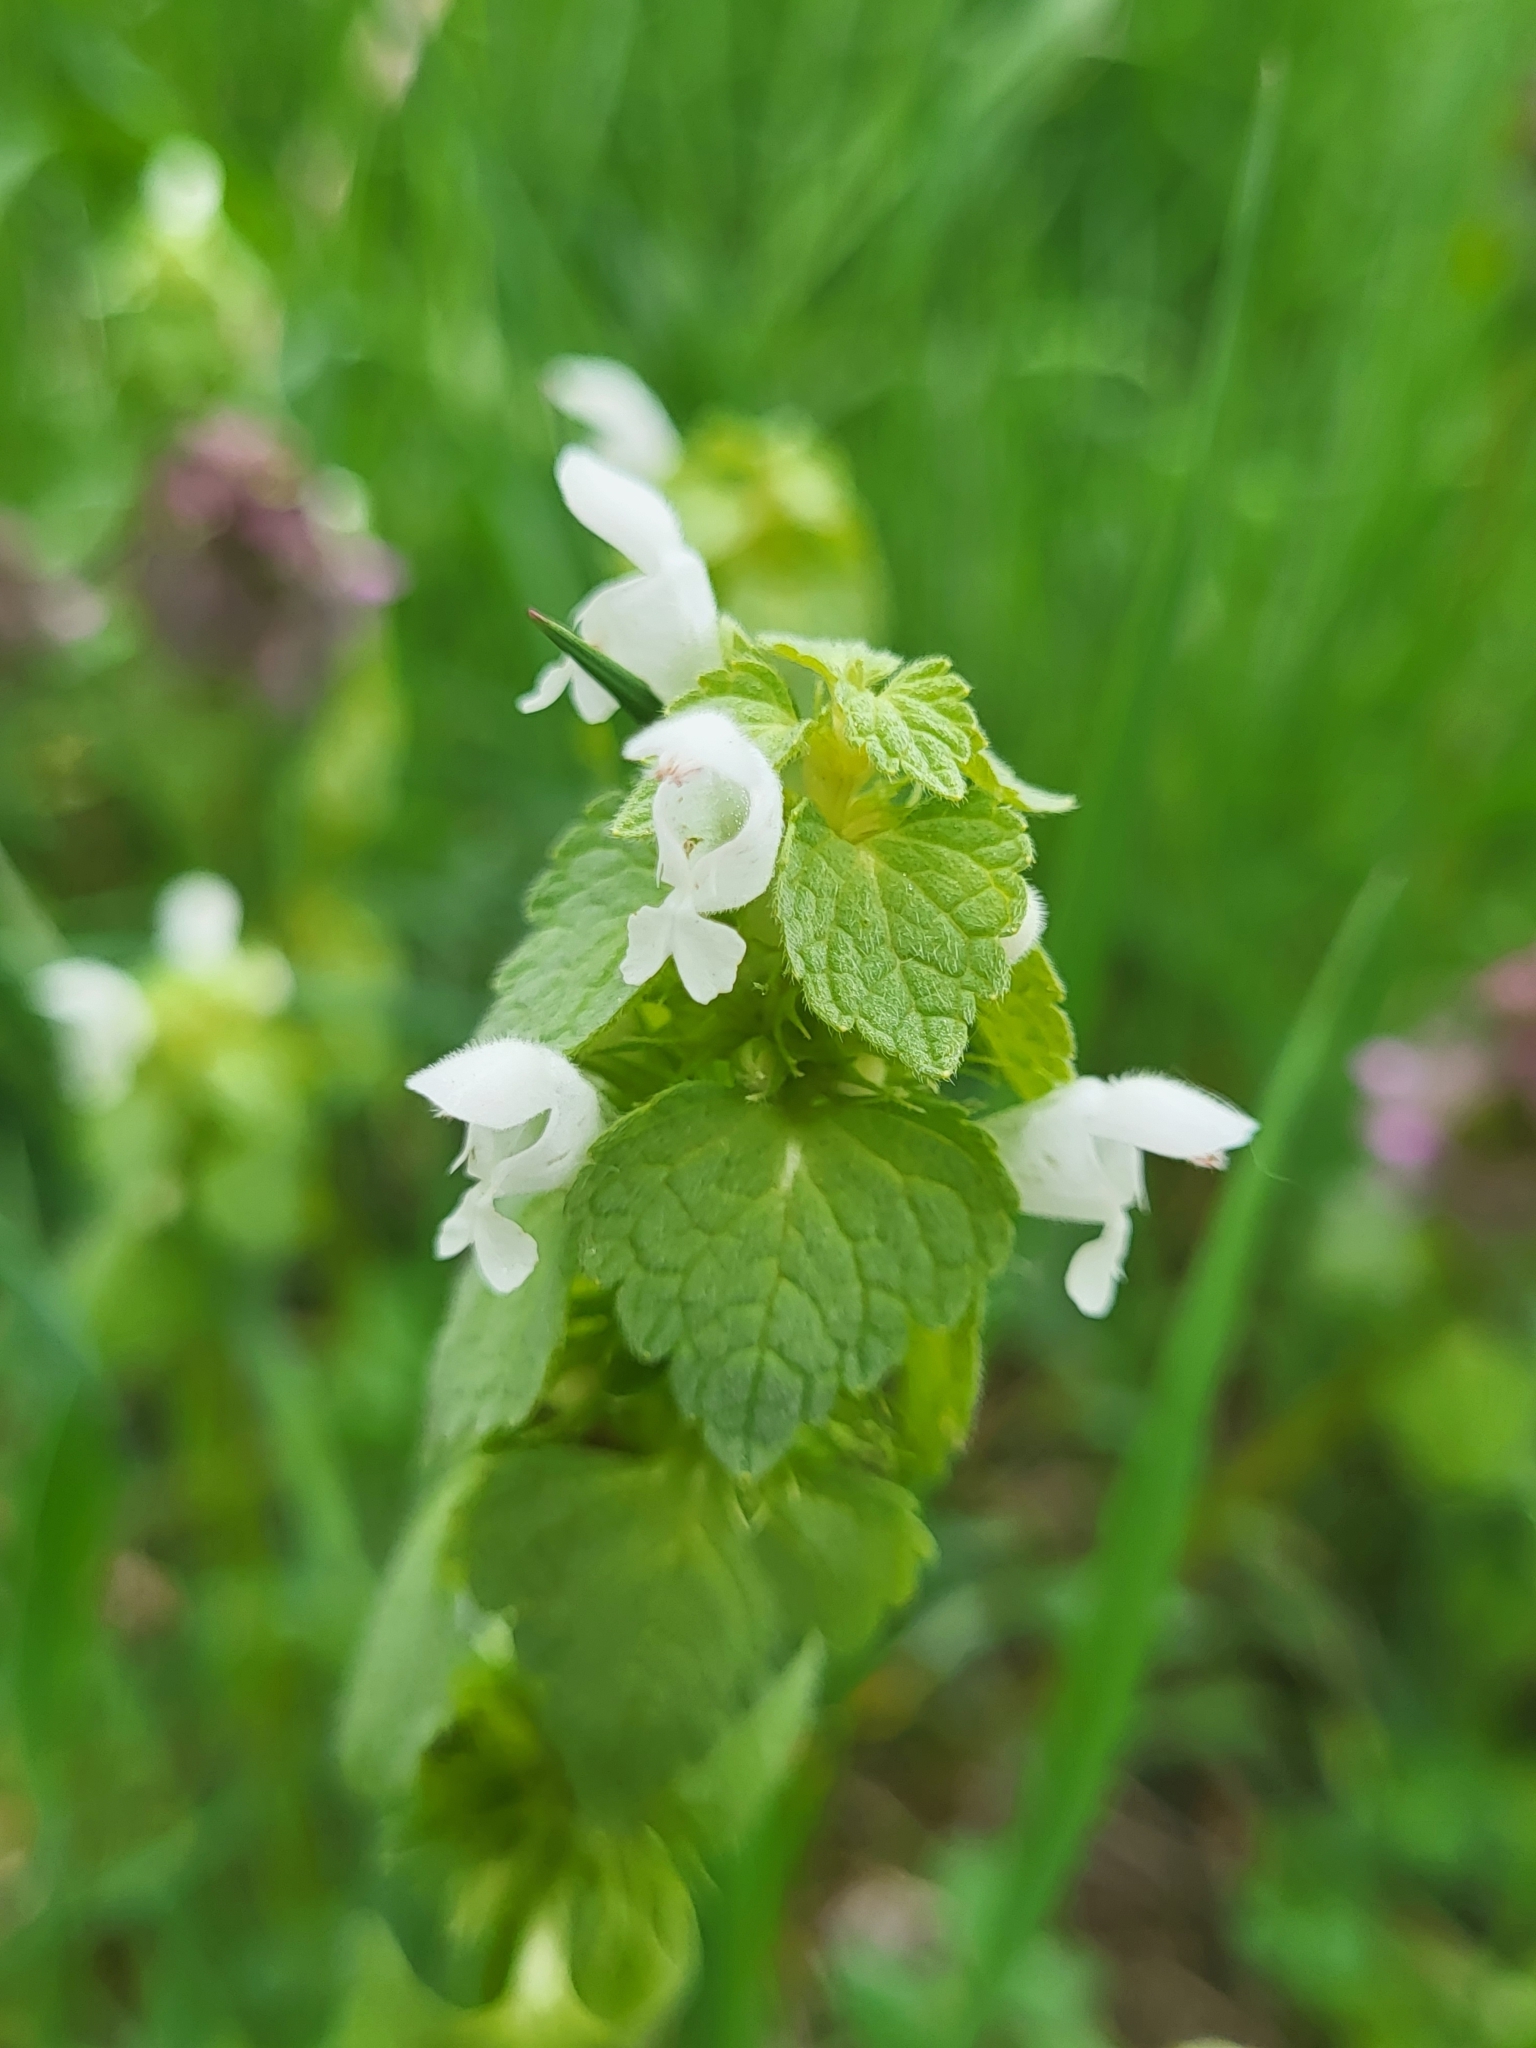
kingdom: Plantae
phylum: Tracheophyta
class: Magnoliopsida
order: Lamiales
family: Lamiaceae
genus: Lamium
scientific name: Lamium purpureum
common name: Red dead-nettle
